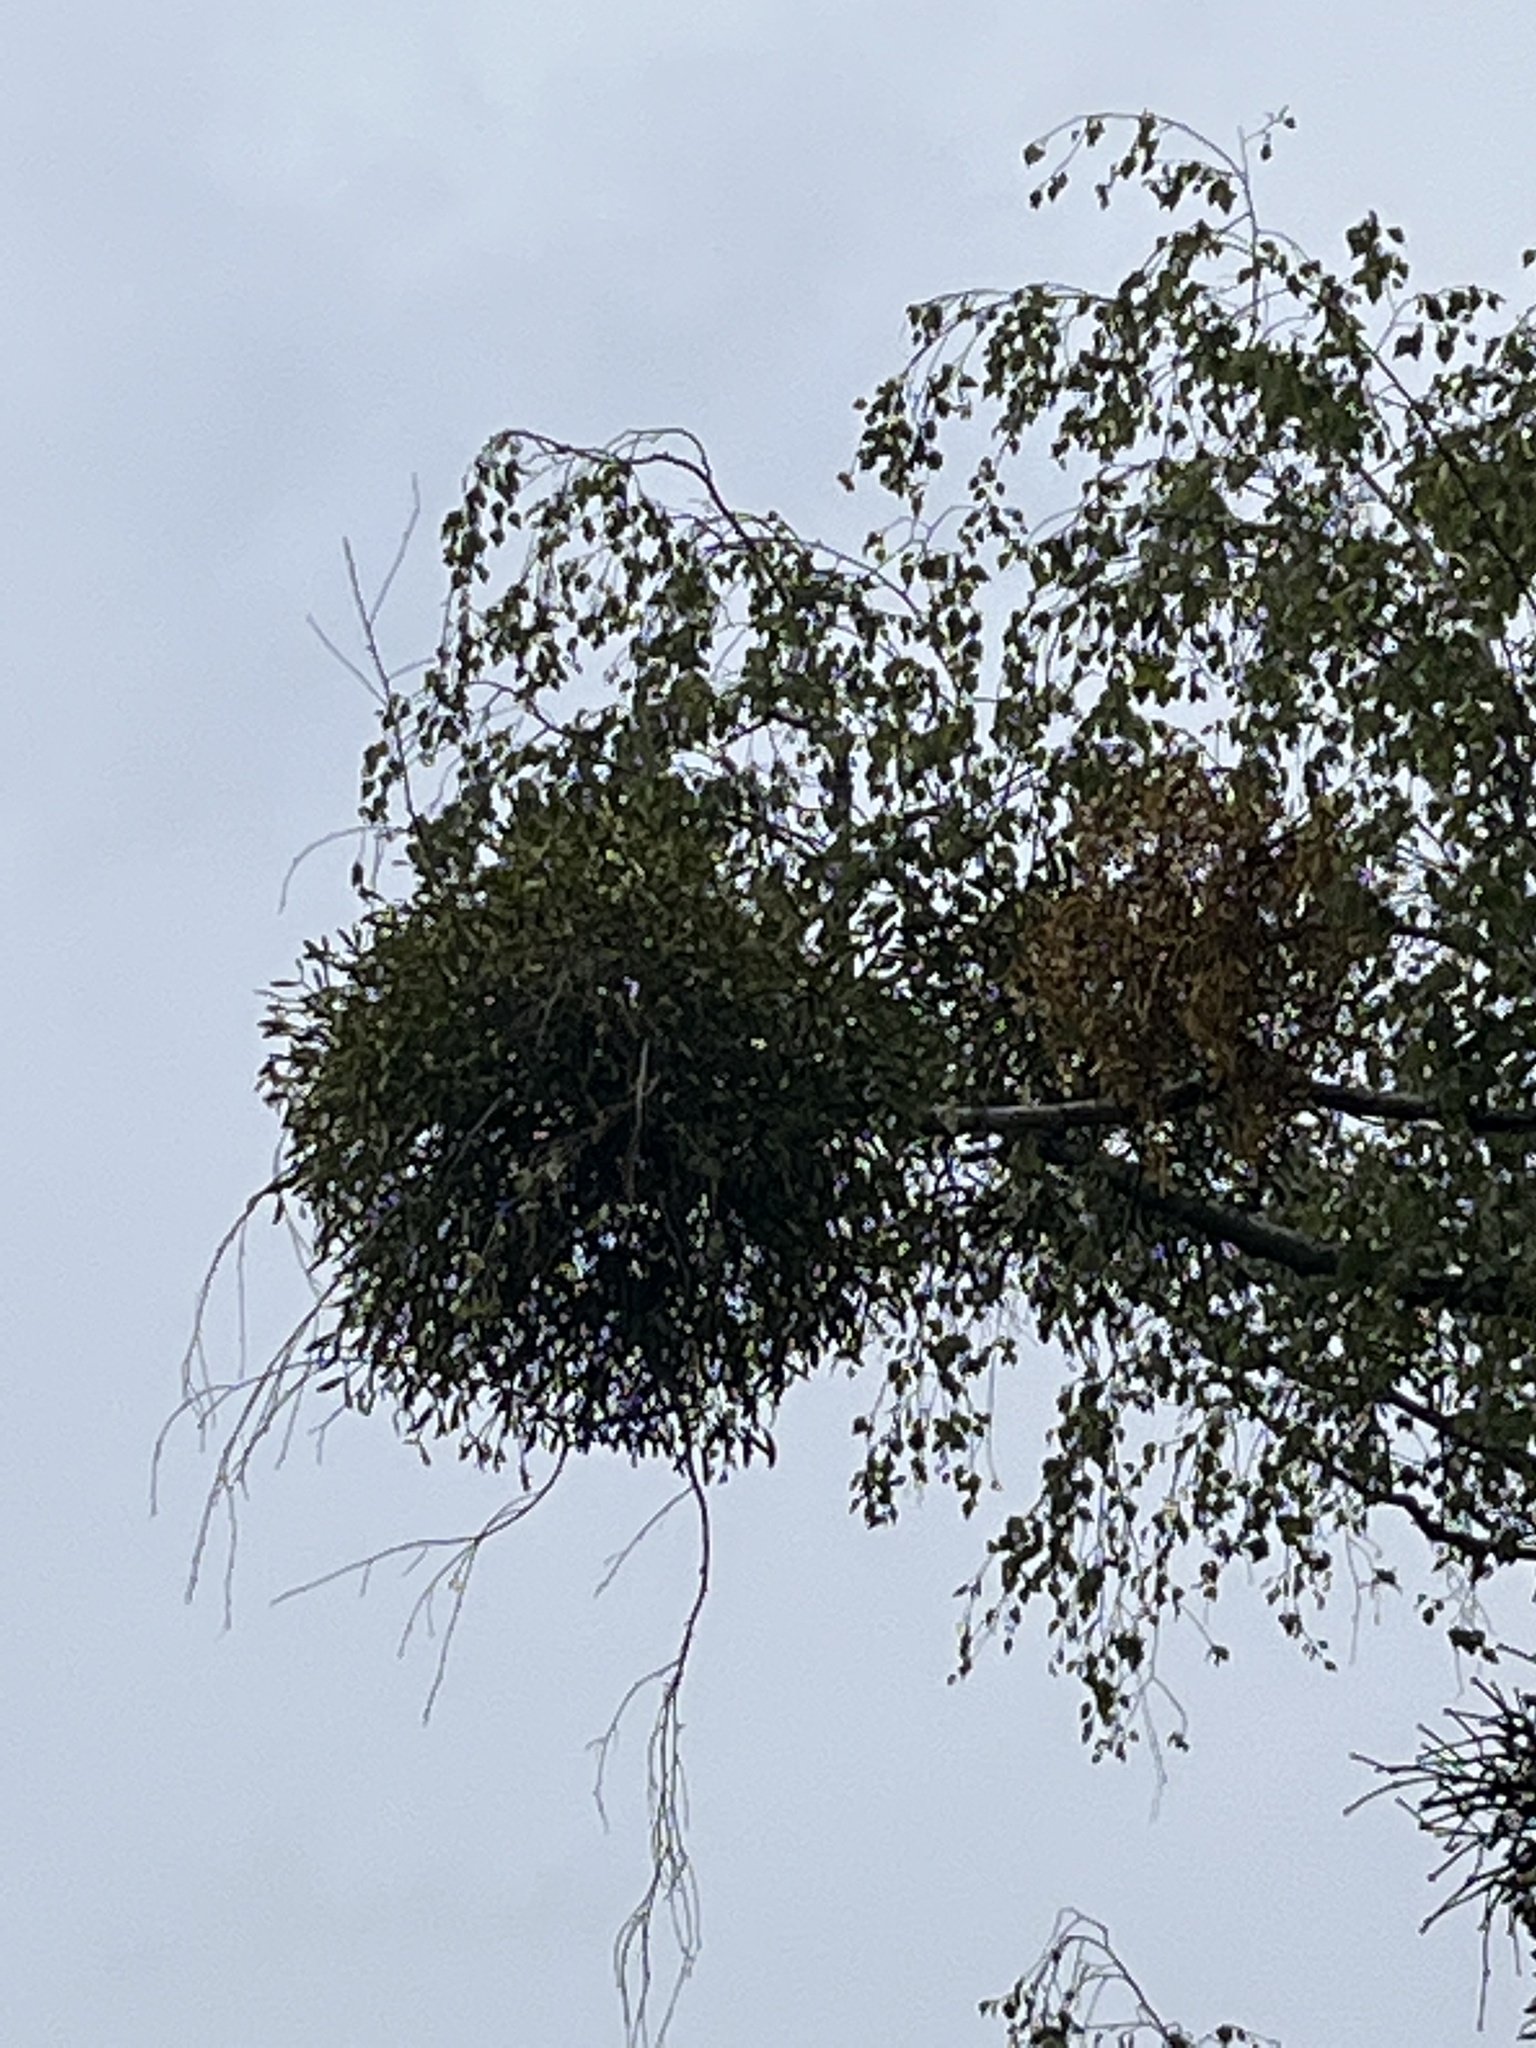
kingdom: Plantae
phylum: Tracheophyta
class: Magnoliopsida
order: Santalales
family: Viscaceae
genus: Viscum
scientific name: Viscum album
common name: Mistletoe
